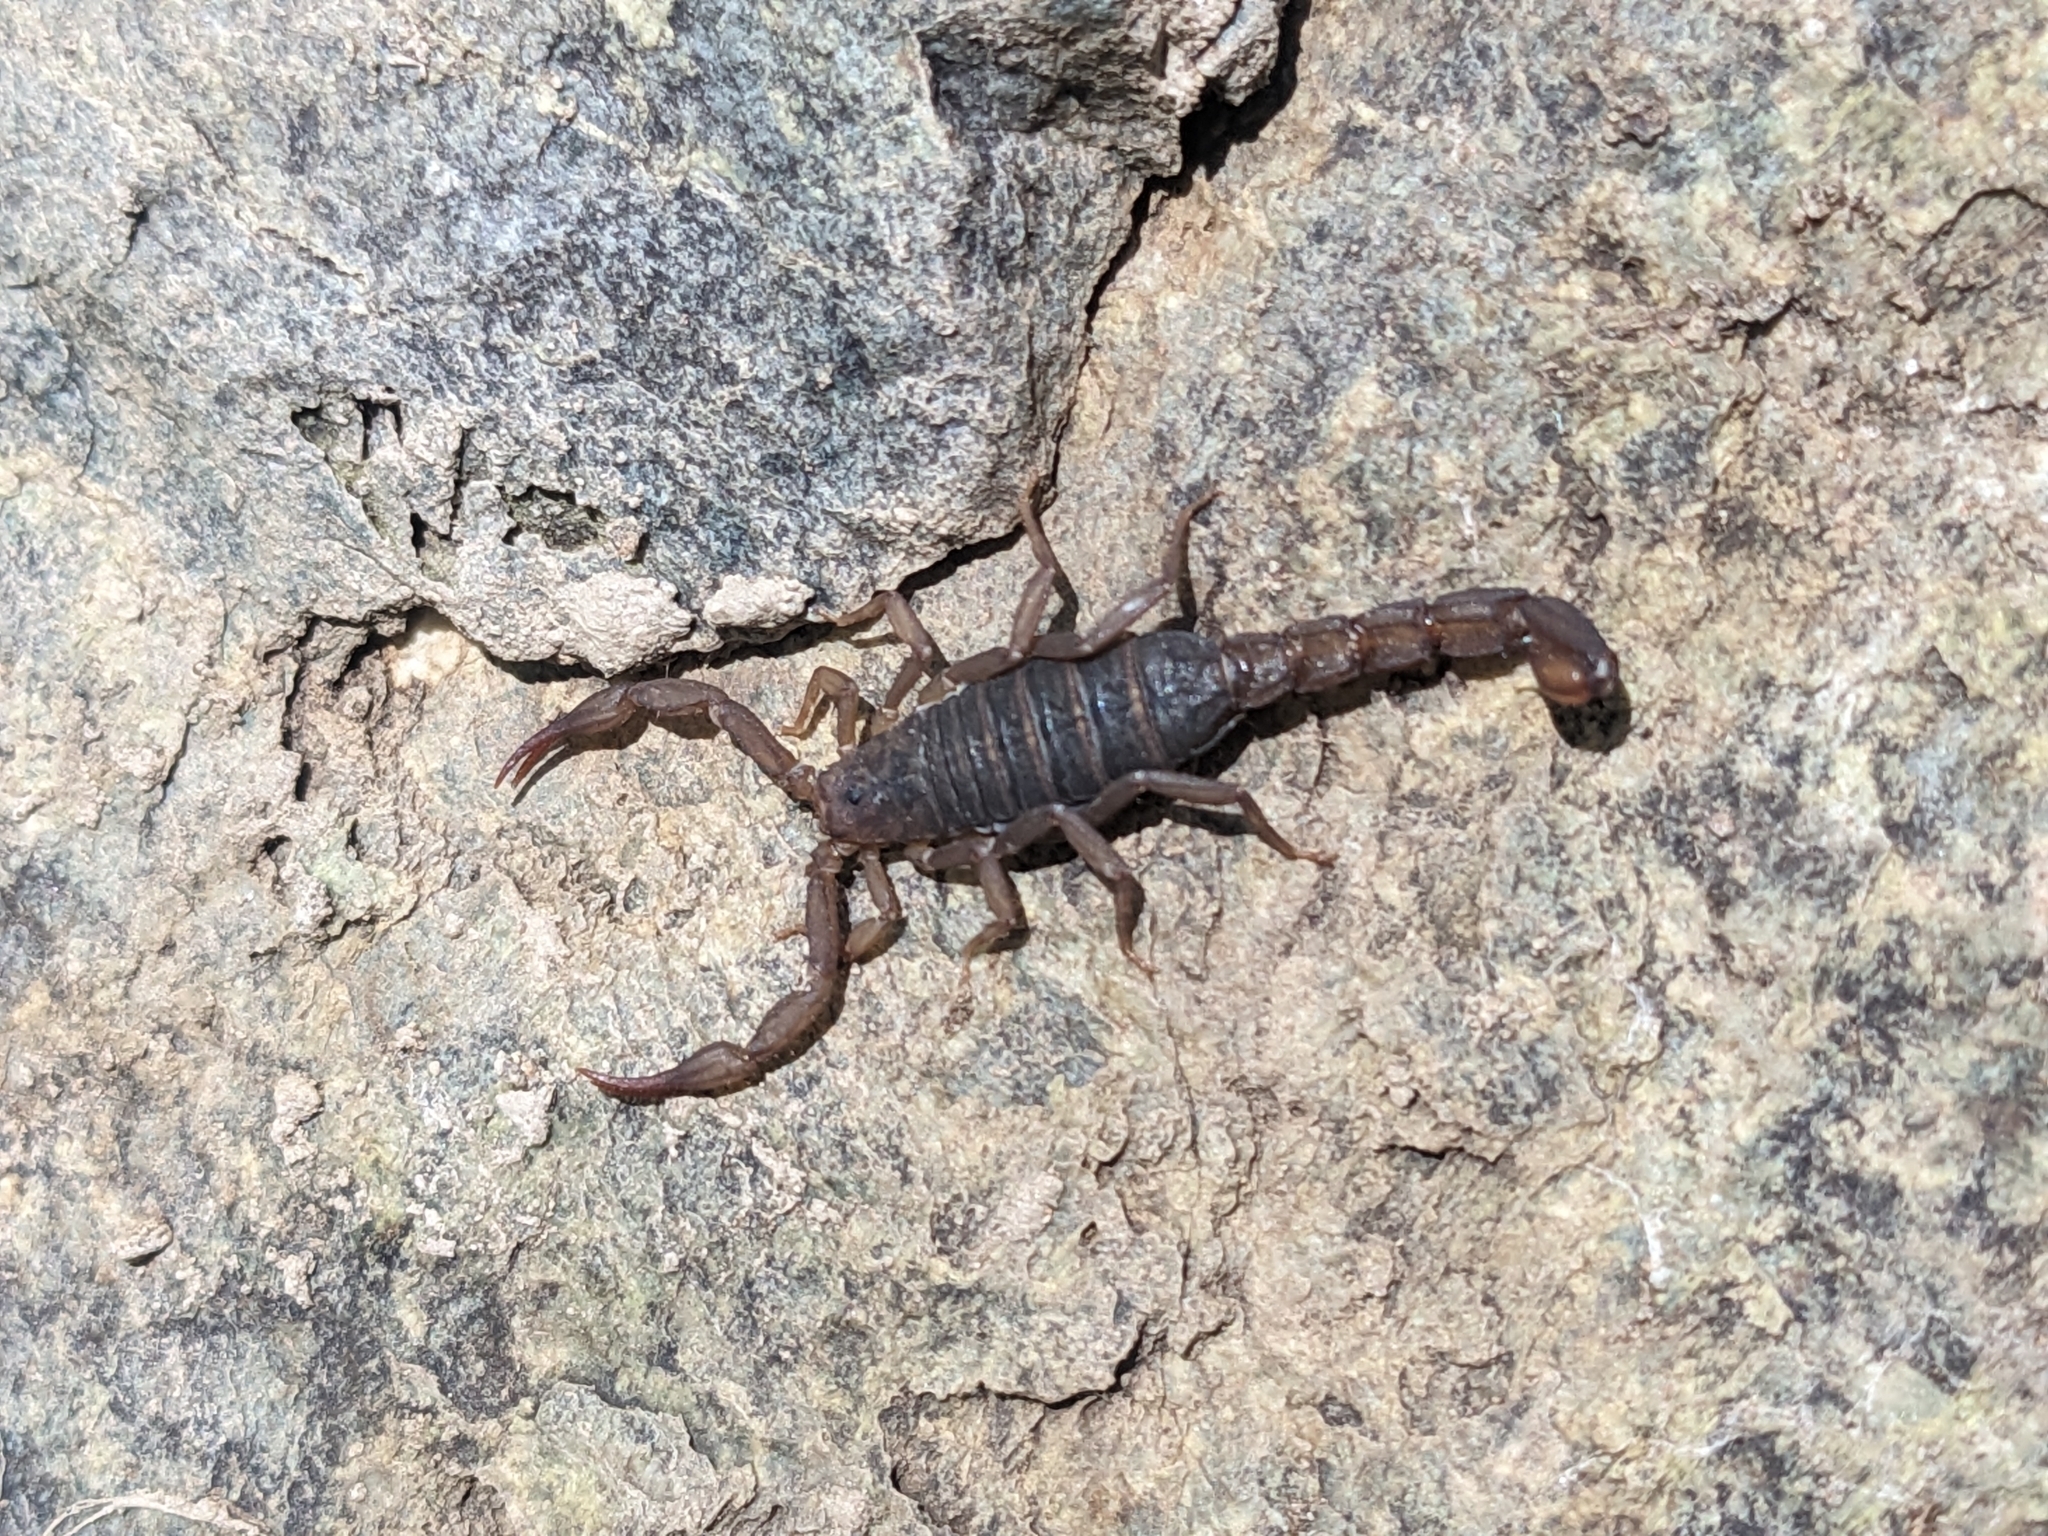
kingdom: Animalia
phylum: Arthropoda
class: Arachnida
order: Scorpiones
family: Vaejovidae
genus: Vaejovis
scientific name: Vaejovis vorhiesi
